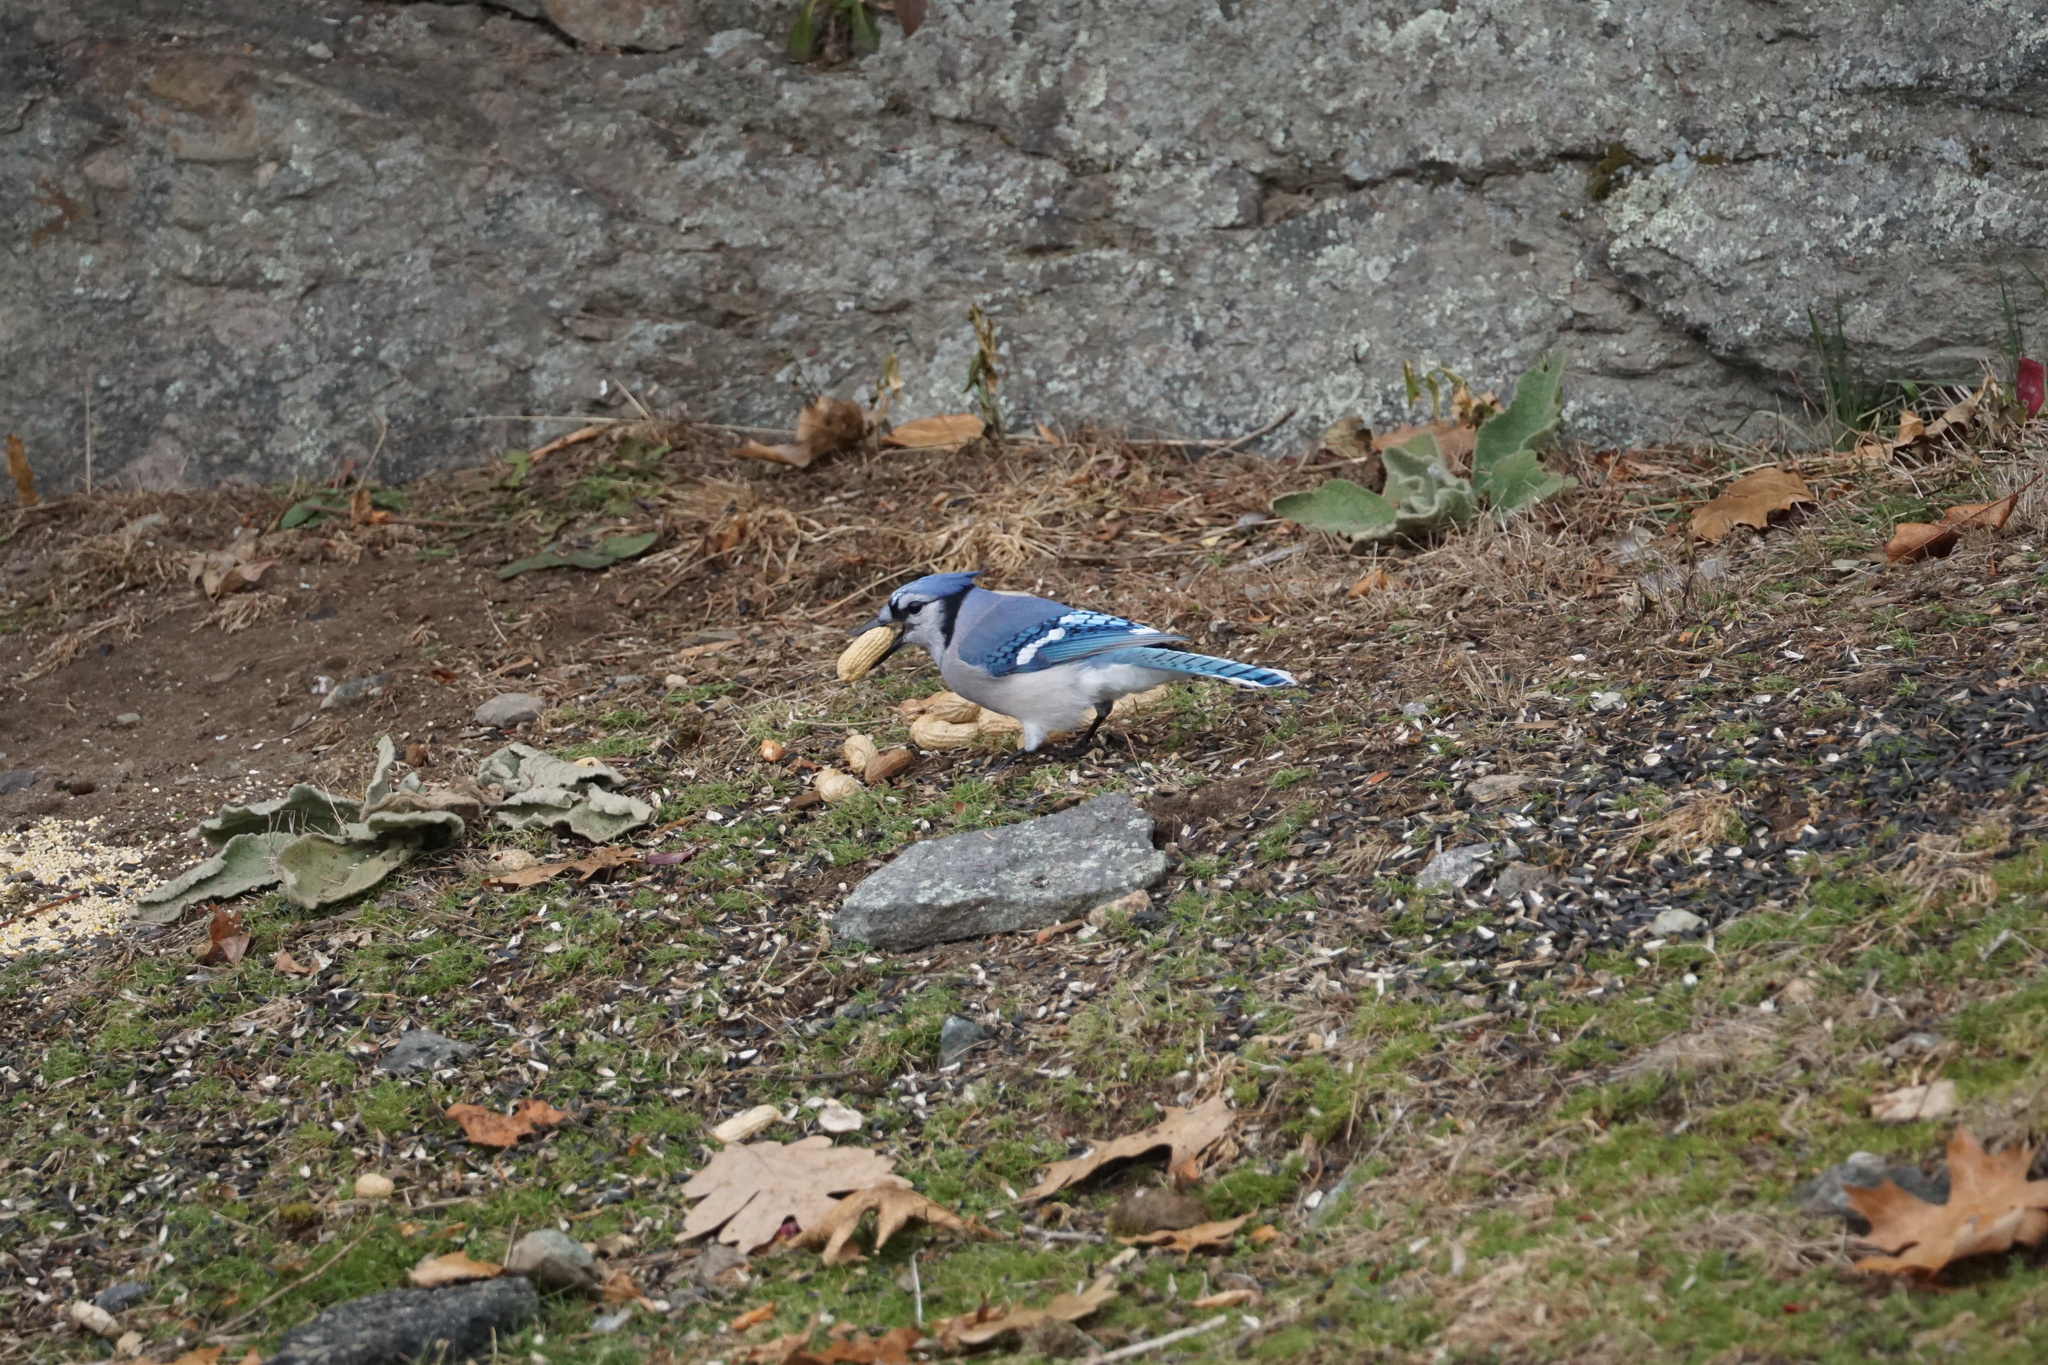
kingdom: Animalia
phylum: Chordata
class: Aves
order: Passeriformes
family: Corvidae
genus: Cyanocitta
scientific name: Cyanocitta cristata
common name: Blue jay
